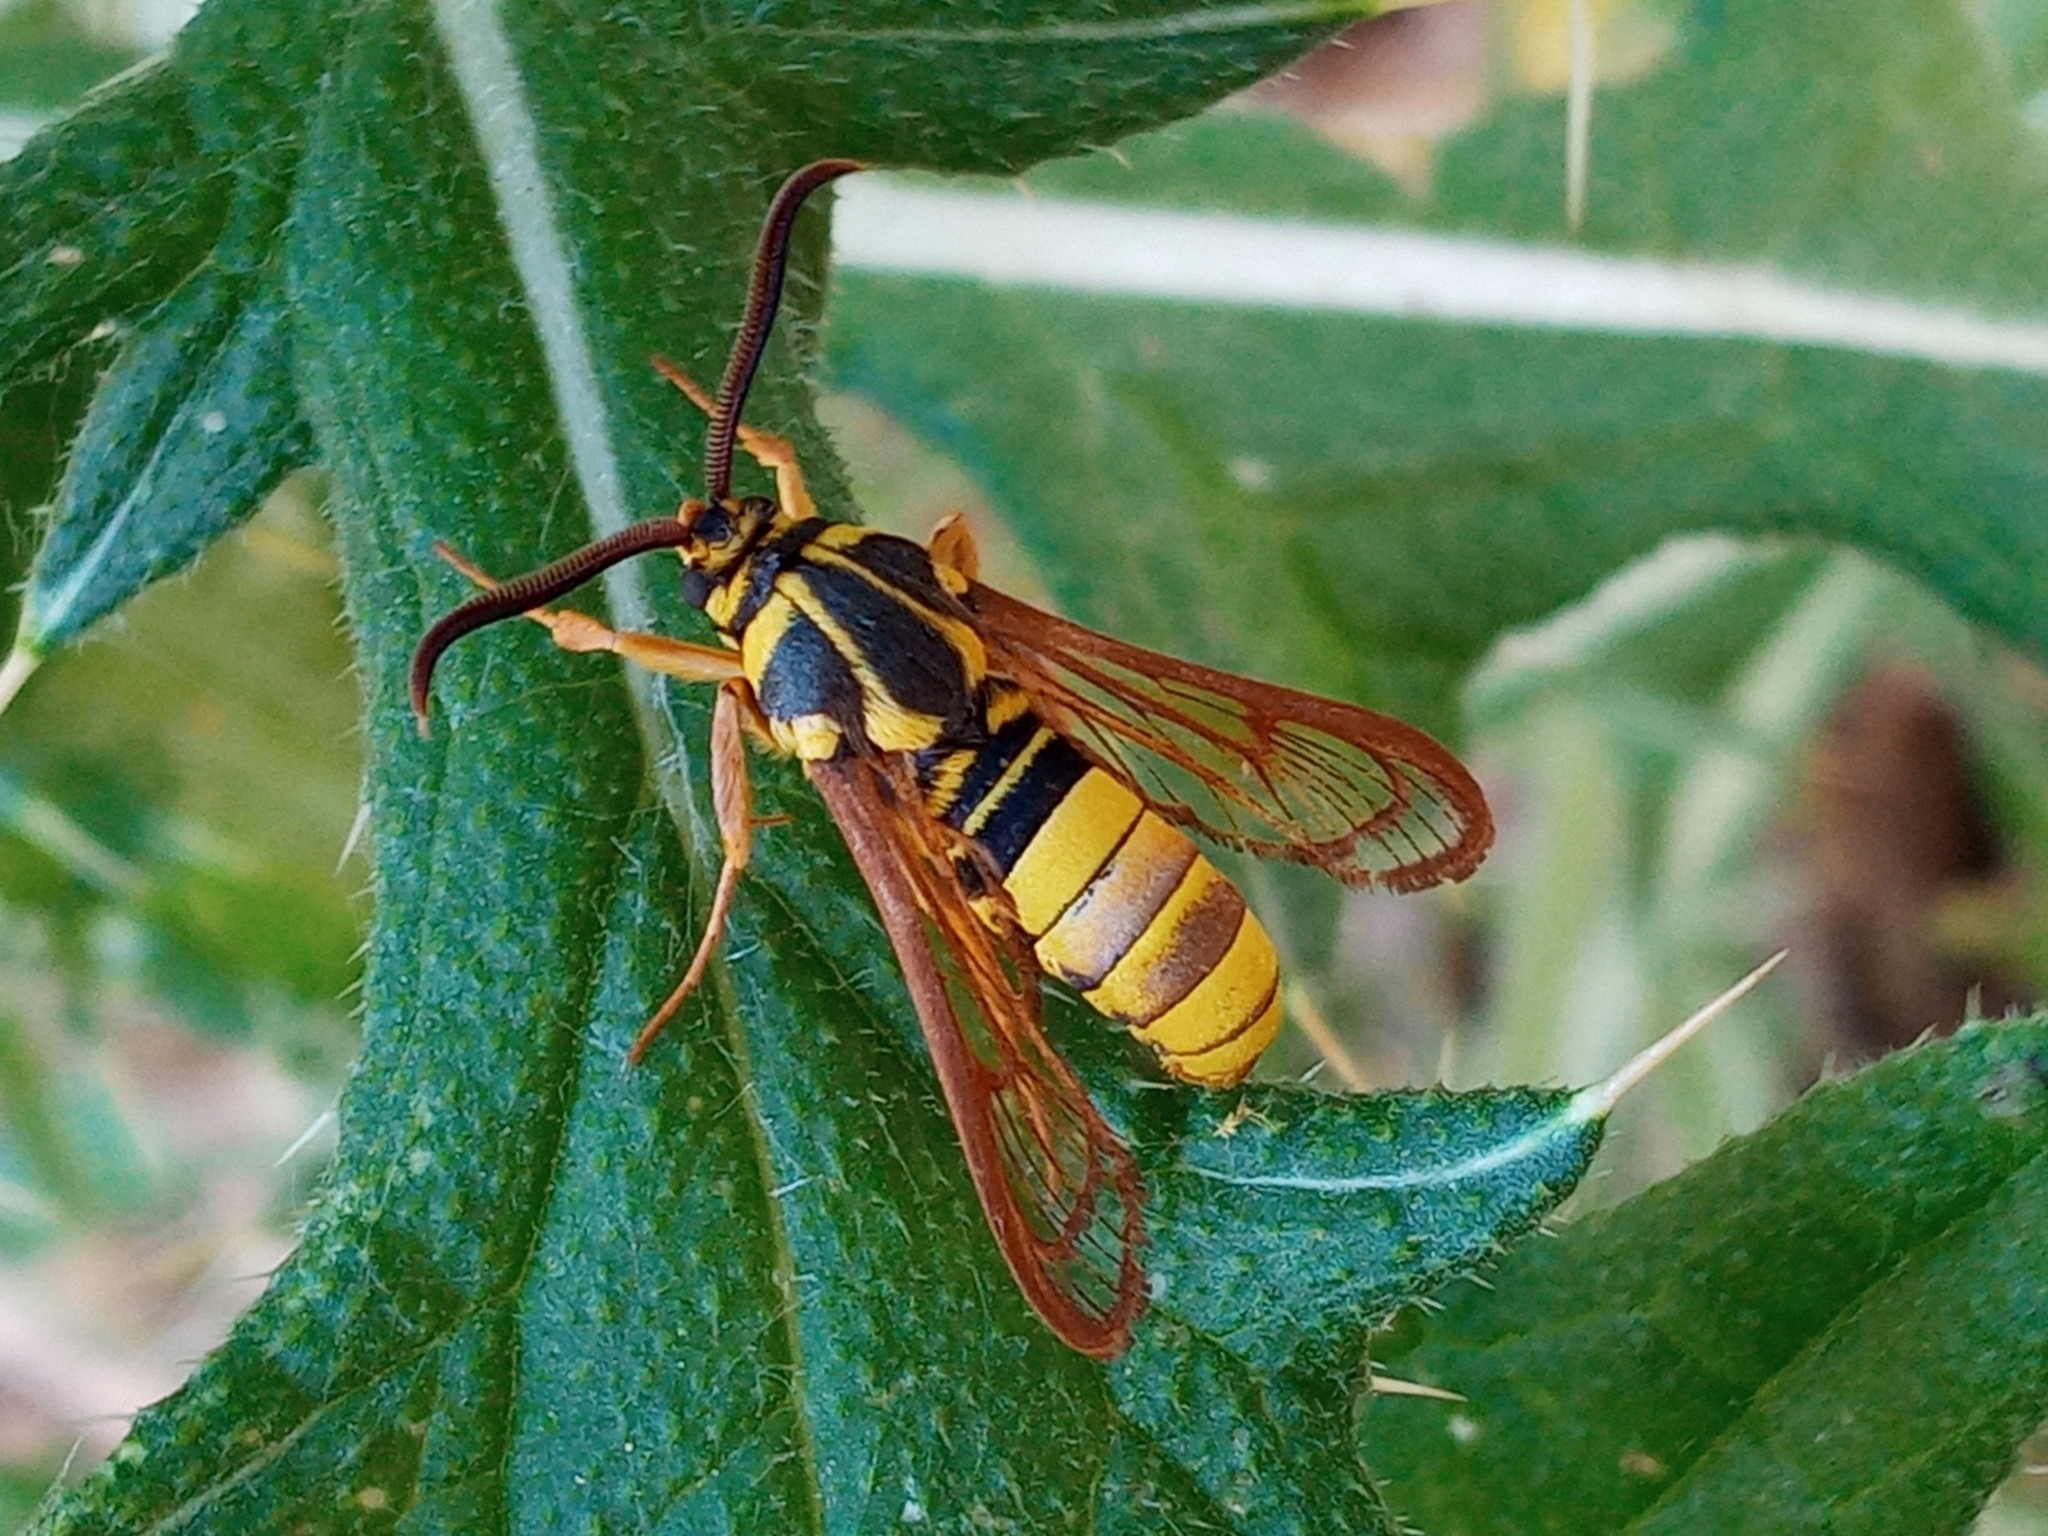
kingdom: Animalia
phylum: Arthropoda
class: Insecta
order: Lepidoptera
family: Sesiidae
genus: Sesia
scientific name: Sesia tibiale
